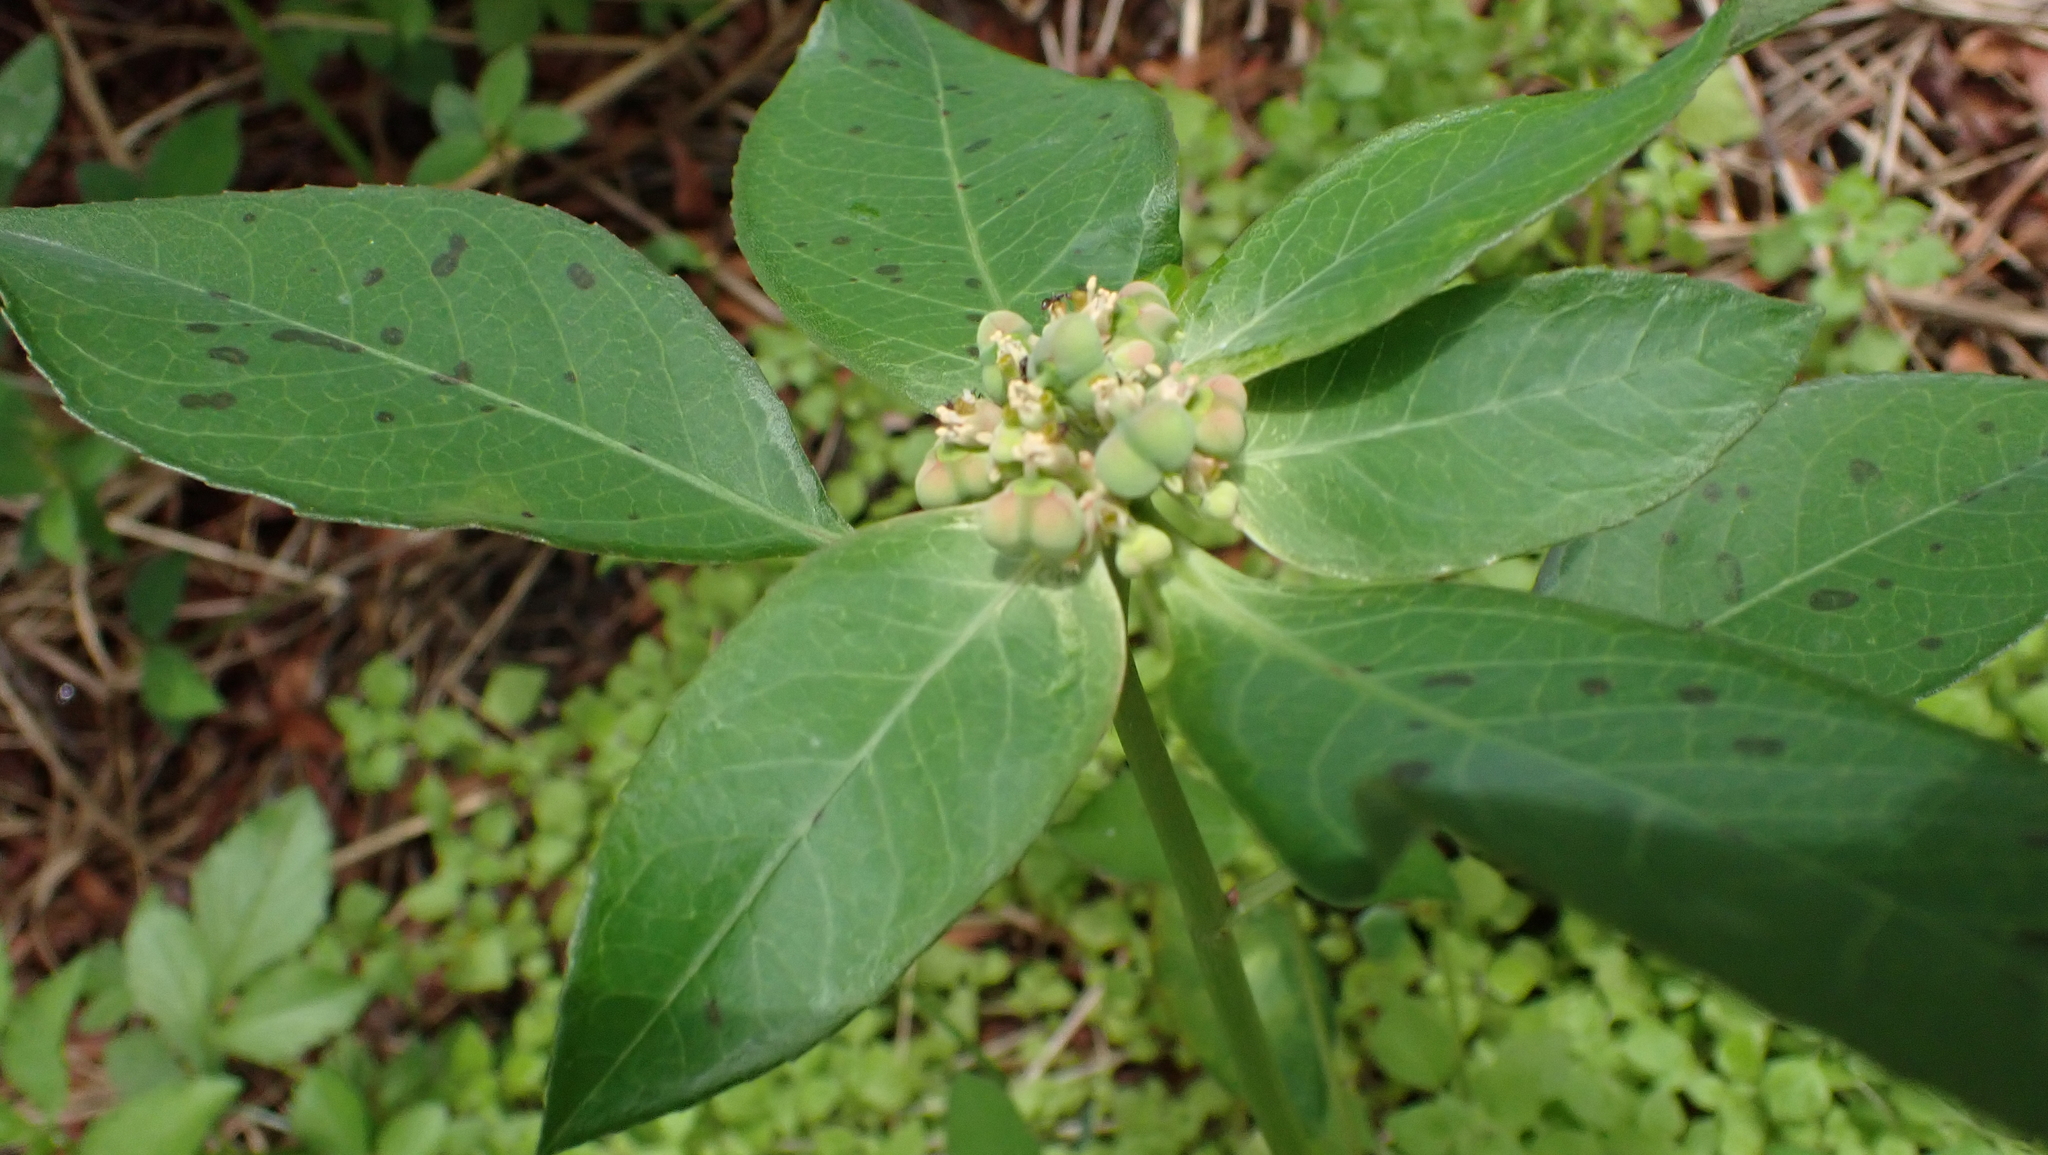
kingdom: Plantae
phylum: Tracheophyta
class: Magnoliopsida
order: Malpighiales
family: Euphorbiaceae
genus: Euphorbia
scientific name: Euphorbia heterophylla
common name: Mexican fireplant
